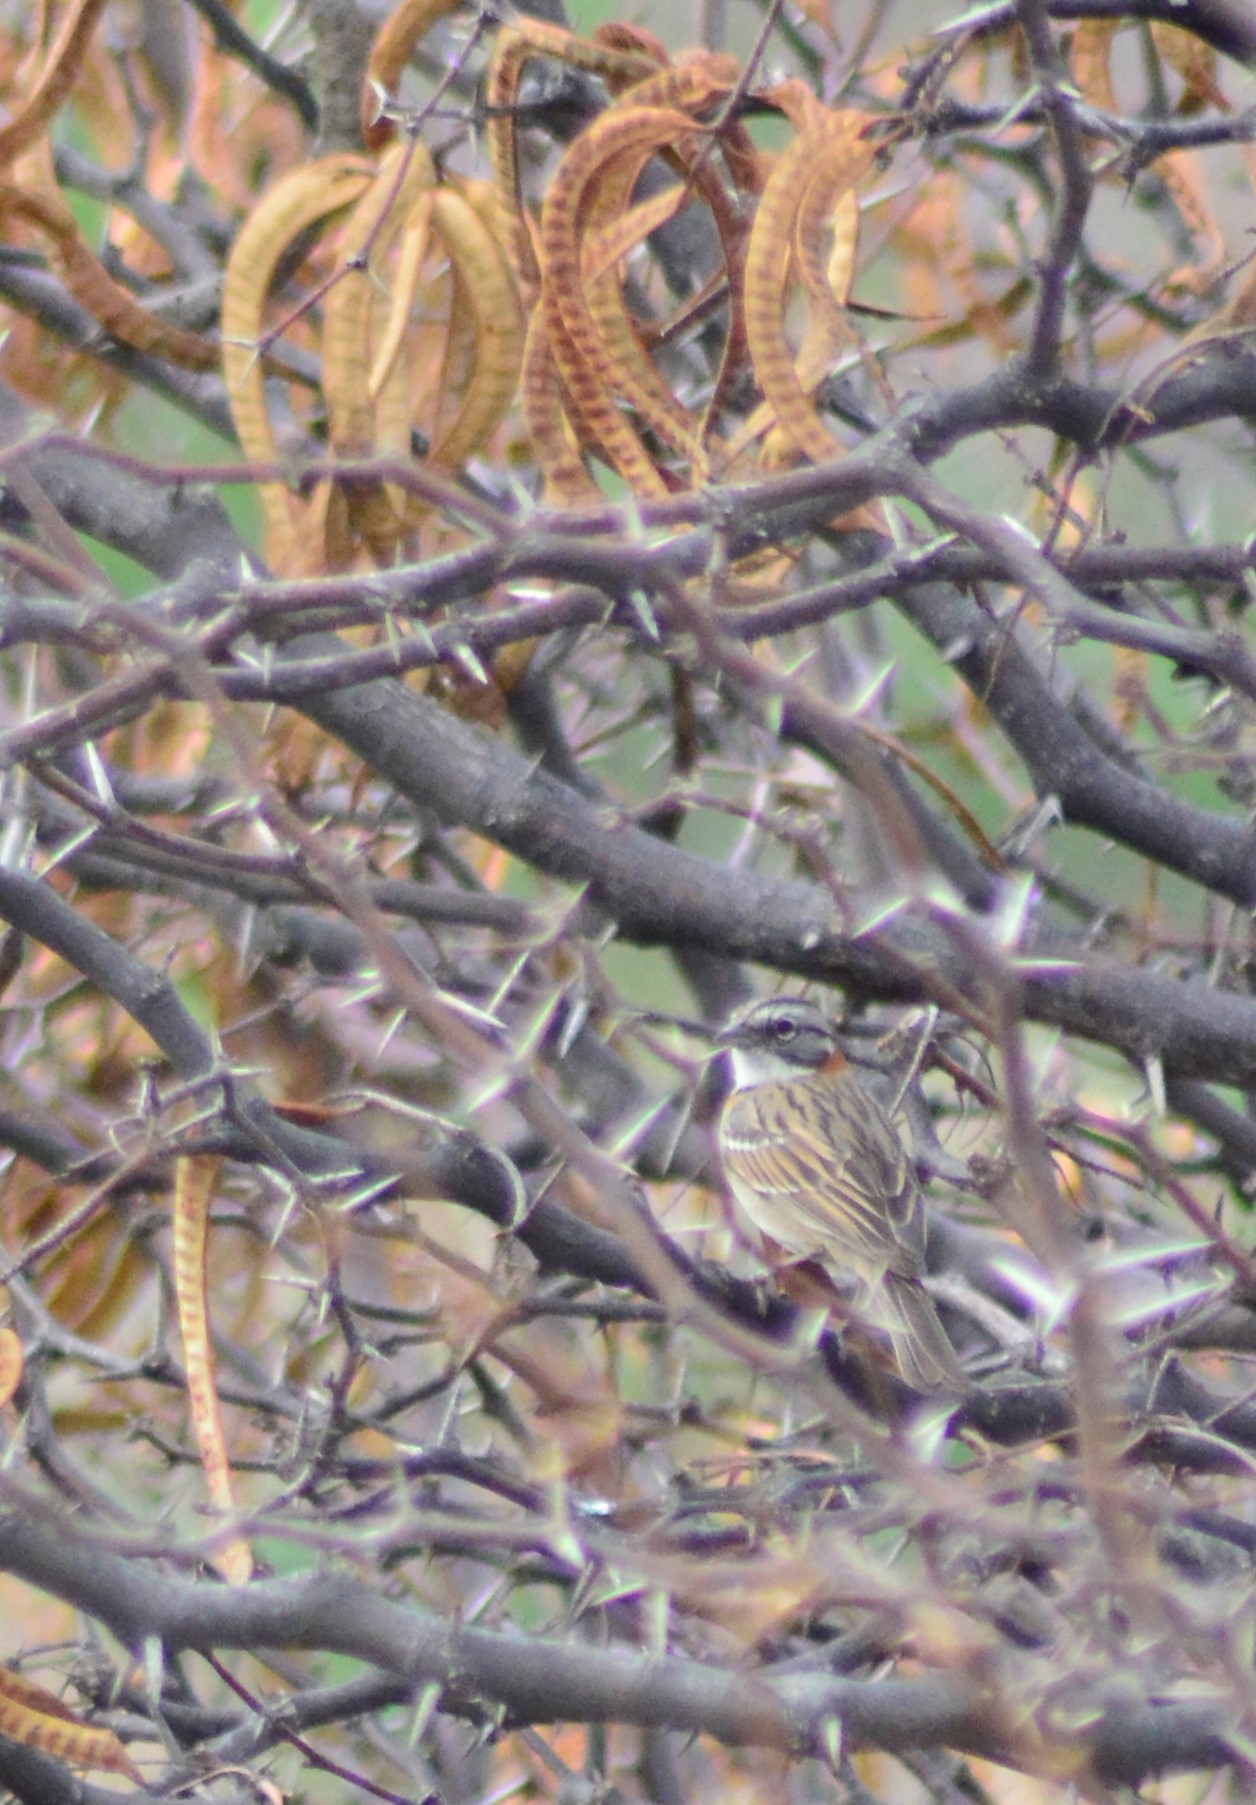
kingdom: Animalia
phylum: Chordata
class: Aves
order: Passeriformes
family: Passerellidae
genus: Zonotrichia
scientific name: Zonotrichia capensis
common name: Rufous-collared sparrow
